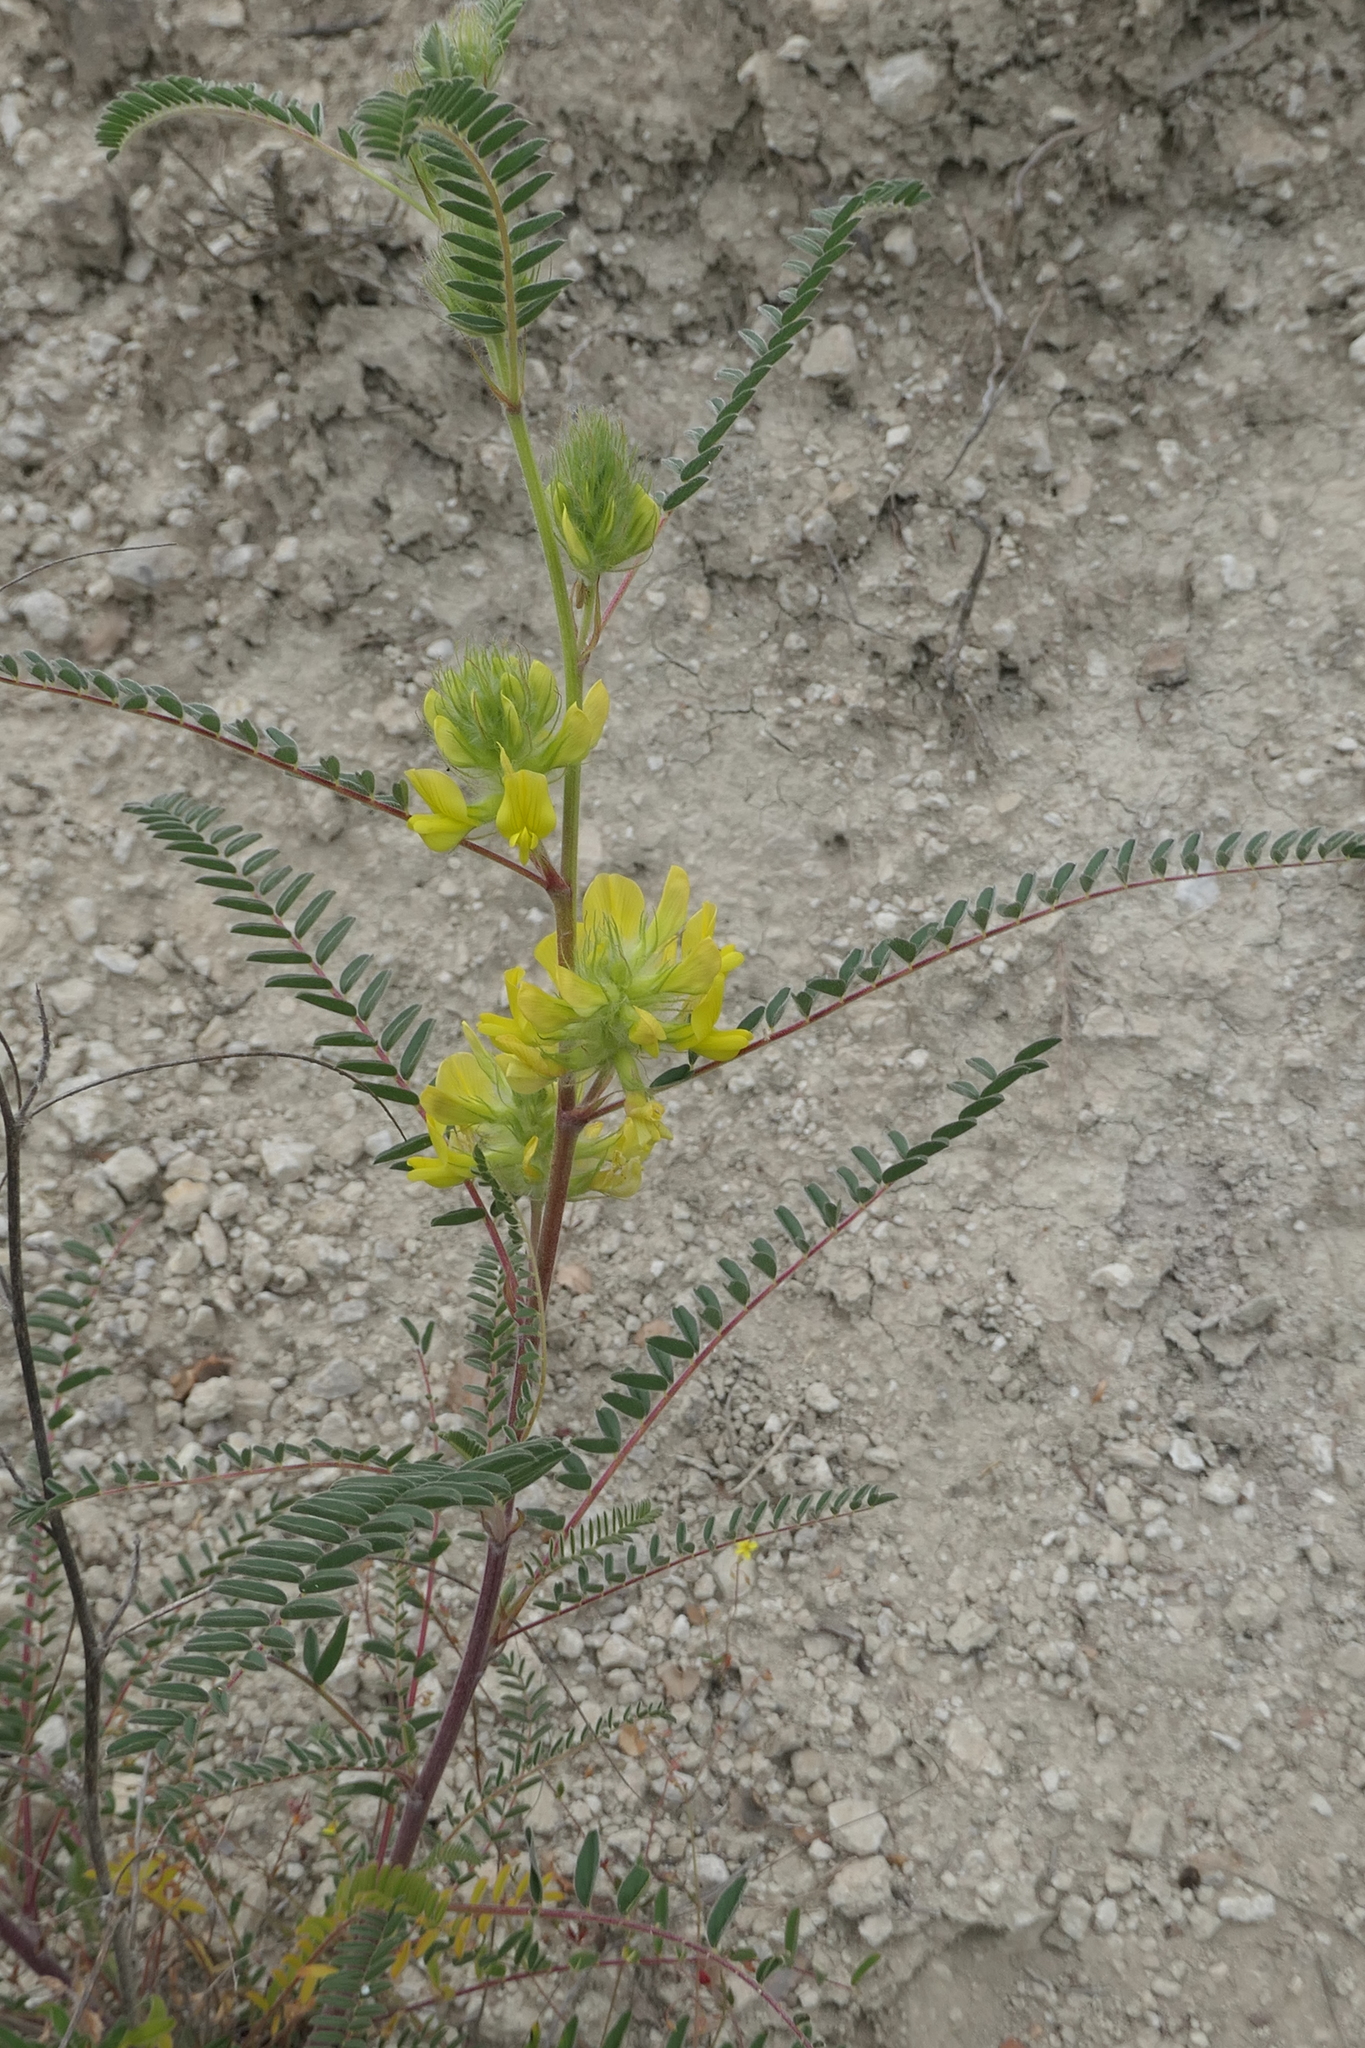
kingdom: Plantae
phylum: Tracheophyta
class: Magnoliopsida
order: Fabales
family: Fabaceae
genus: Astragalus
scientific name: Astragalus alopecuroides
